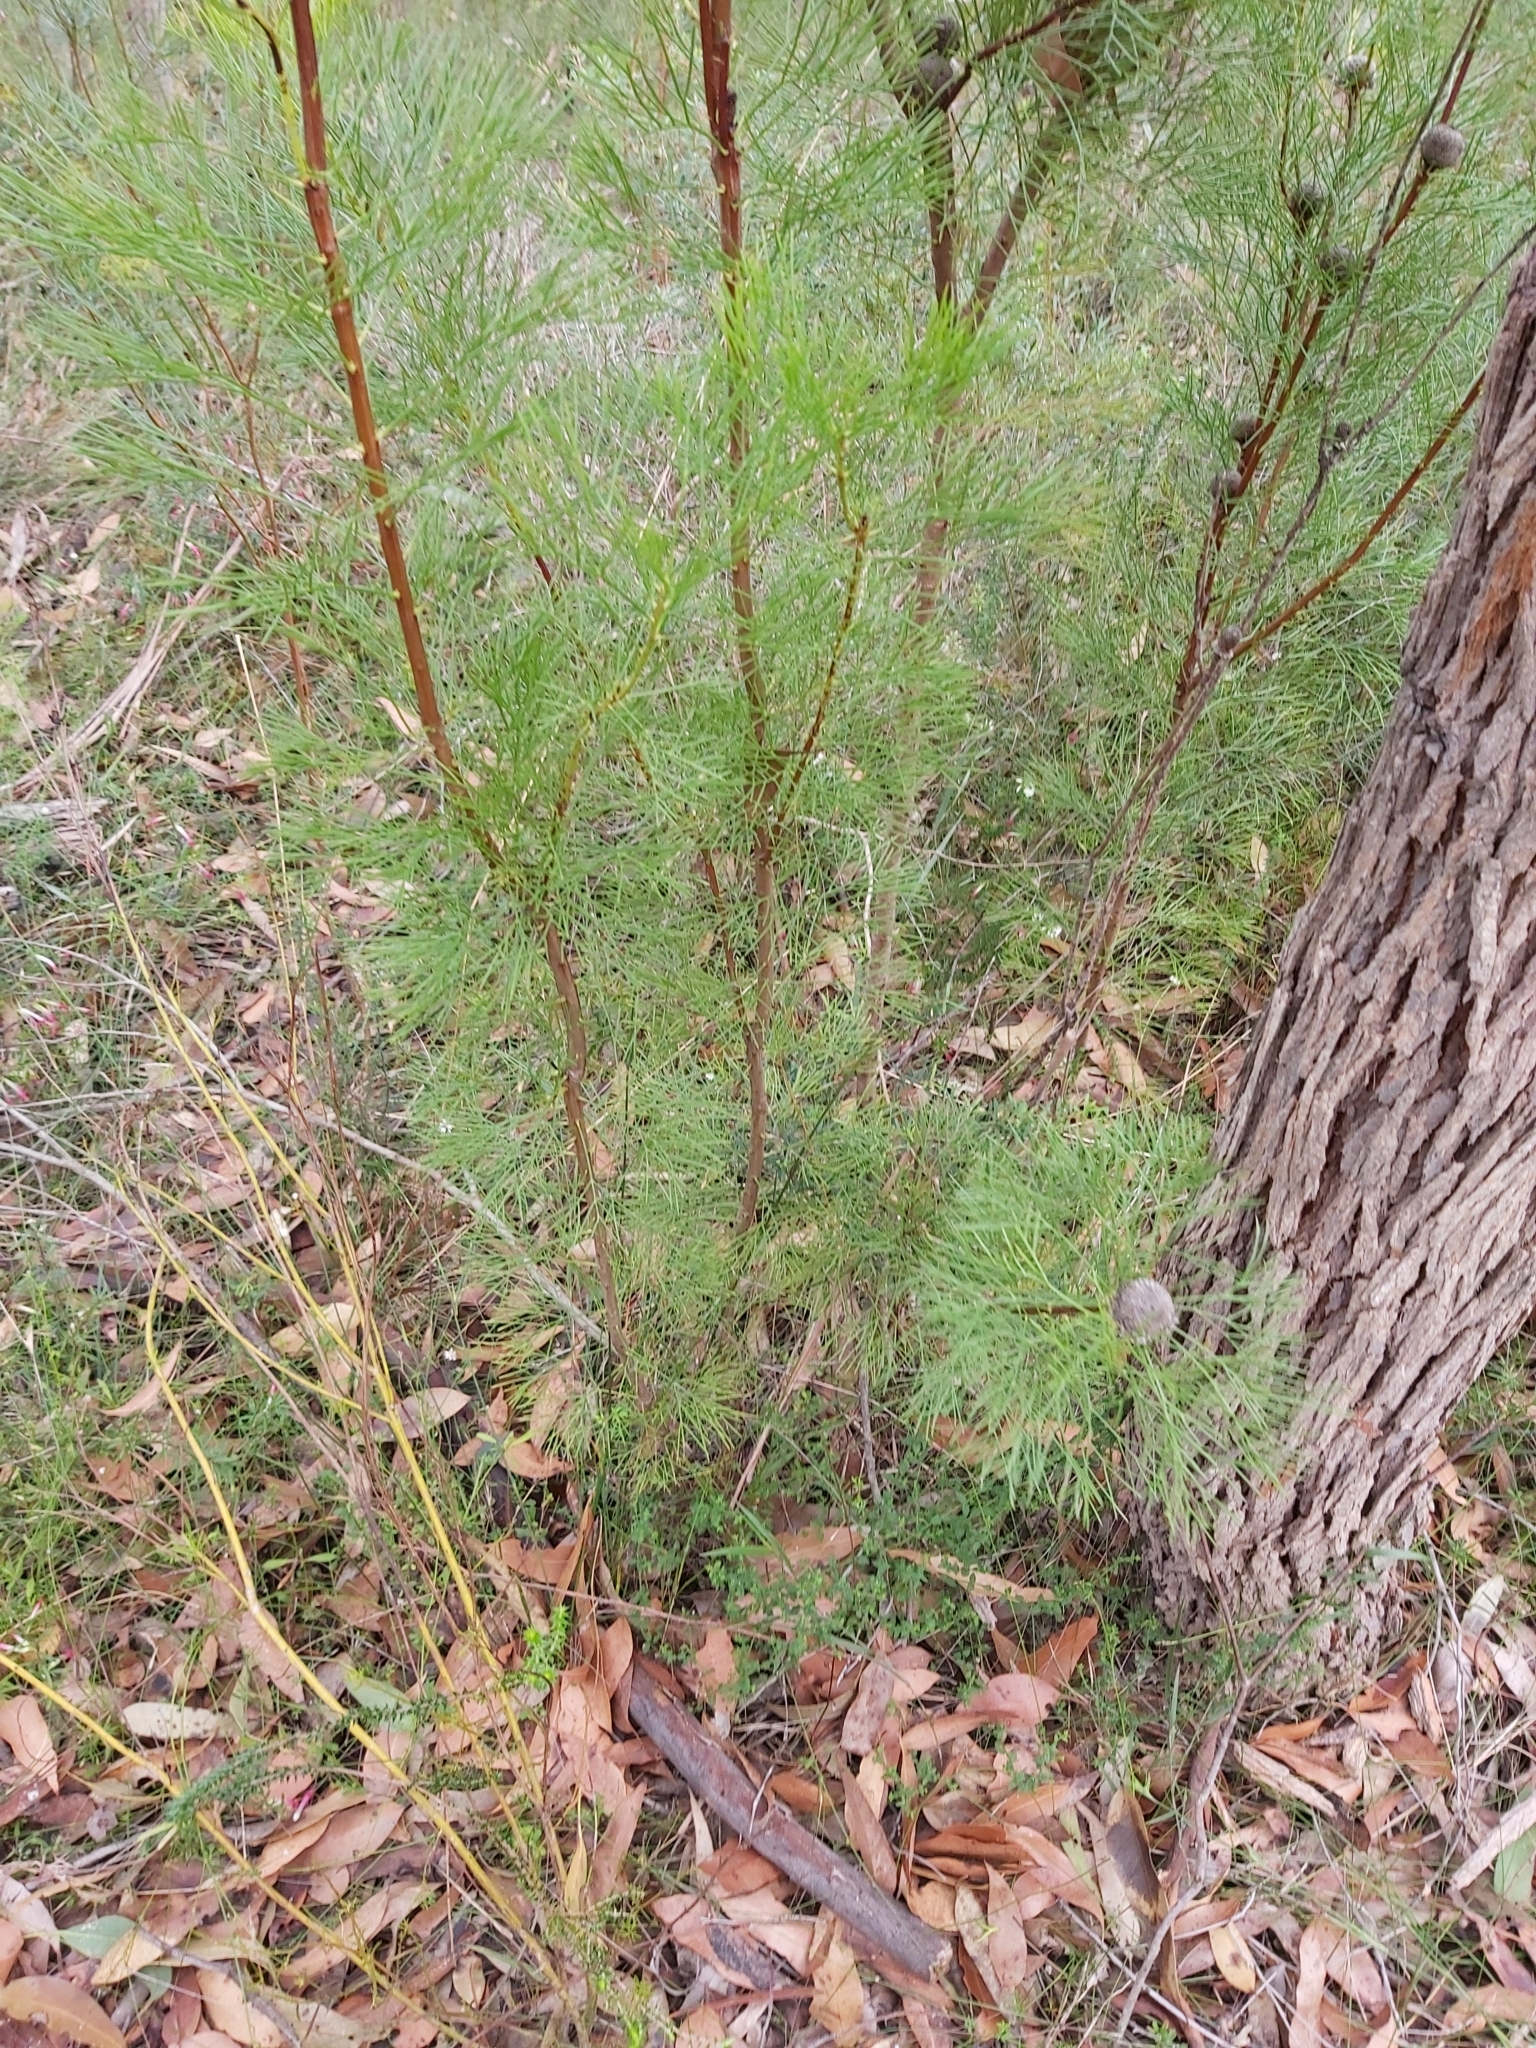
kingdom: Plantae
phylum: Tracheophyta
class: Magnoliopsida
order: Proteales
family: Proteaceae
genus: Isopogon
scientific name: Isopogon anethifolius
